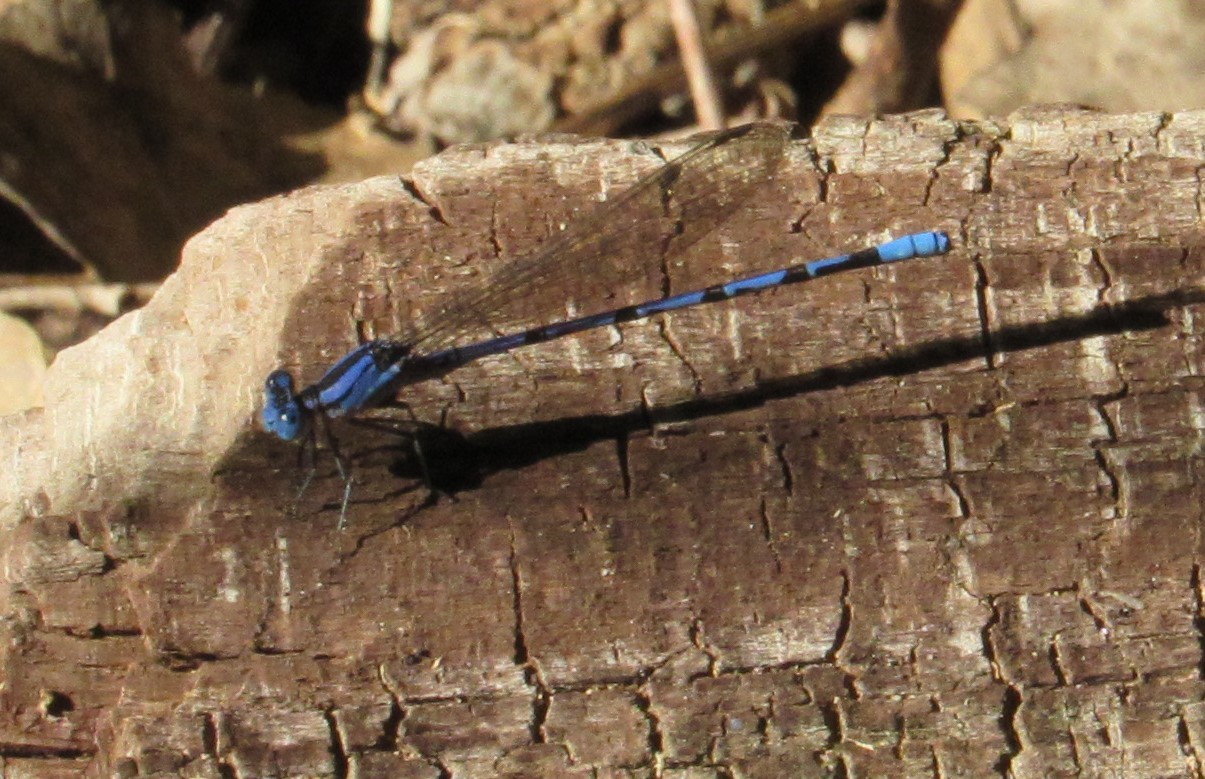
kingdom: Animalia
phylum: Arthropoda
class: Insecta
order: Odonata
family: Coenagrionidae
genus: Argia
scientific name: Argia funebris
